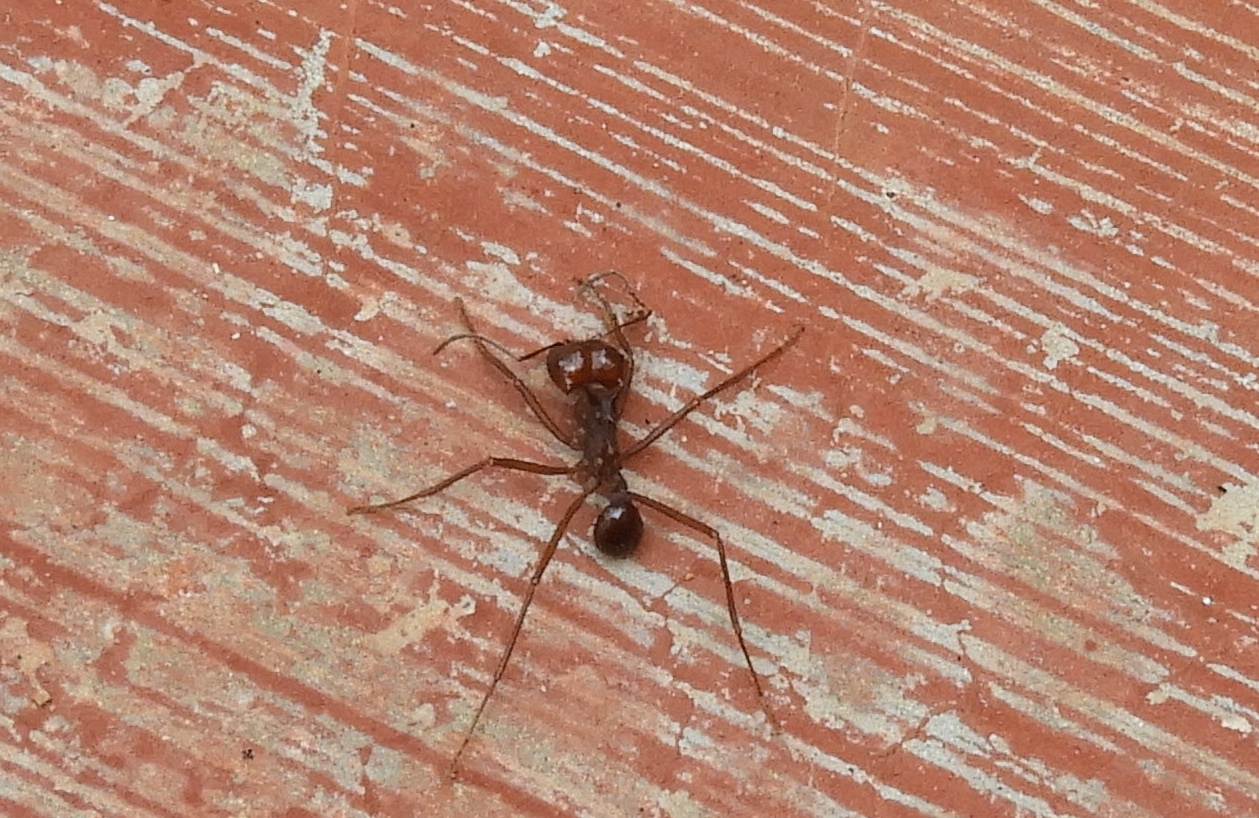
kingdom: Animalia
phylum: Arthropoda
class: Insecta
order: Hymenoptera
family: Formicidae
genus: Atta
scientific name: Atta mexicana
